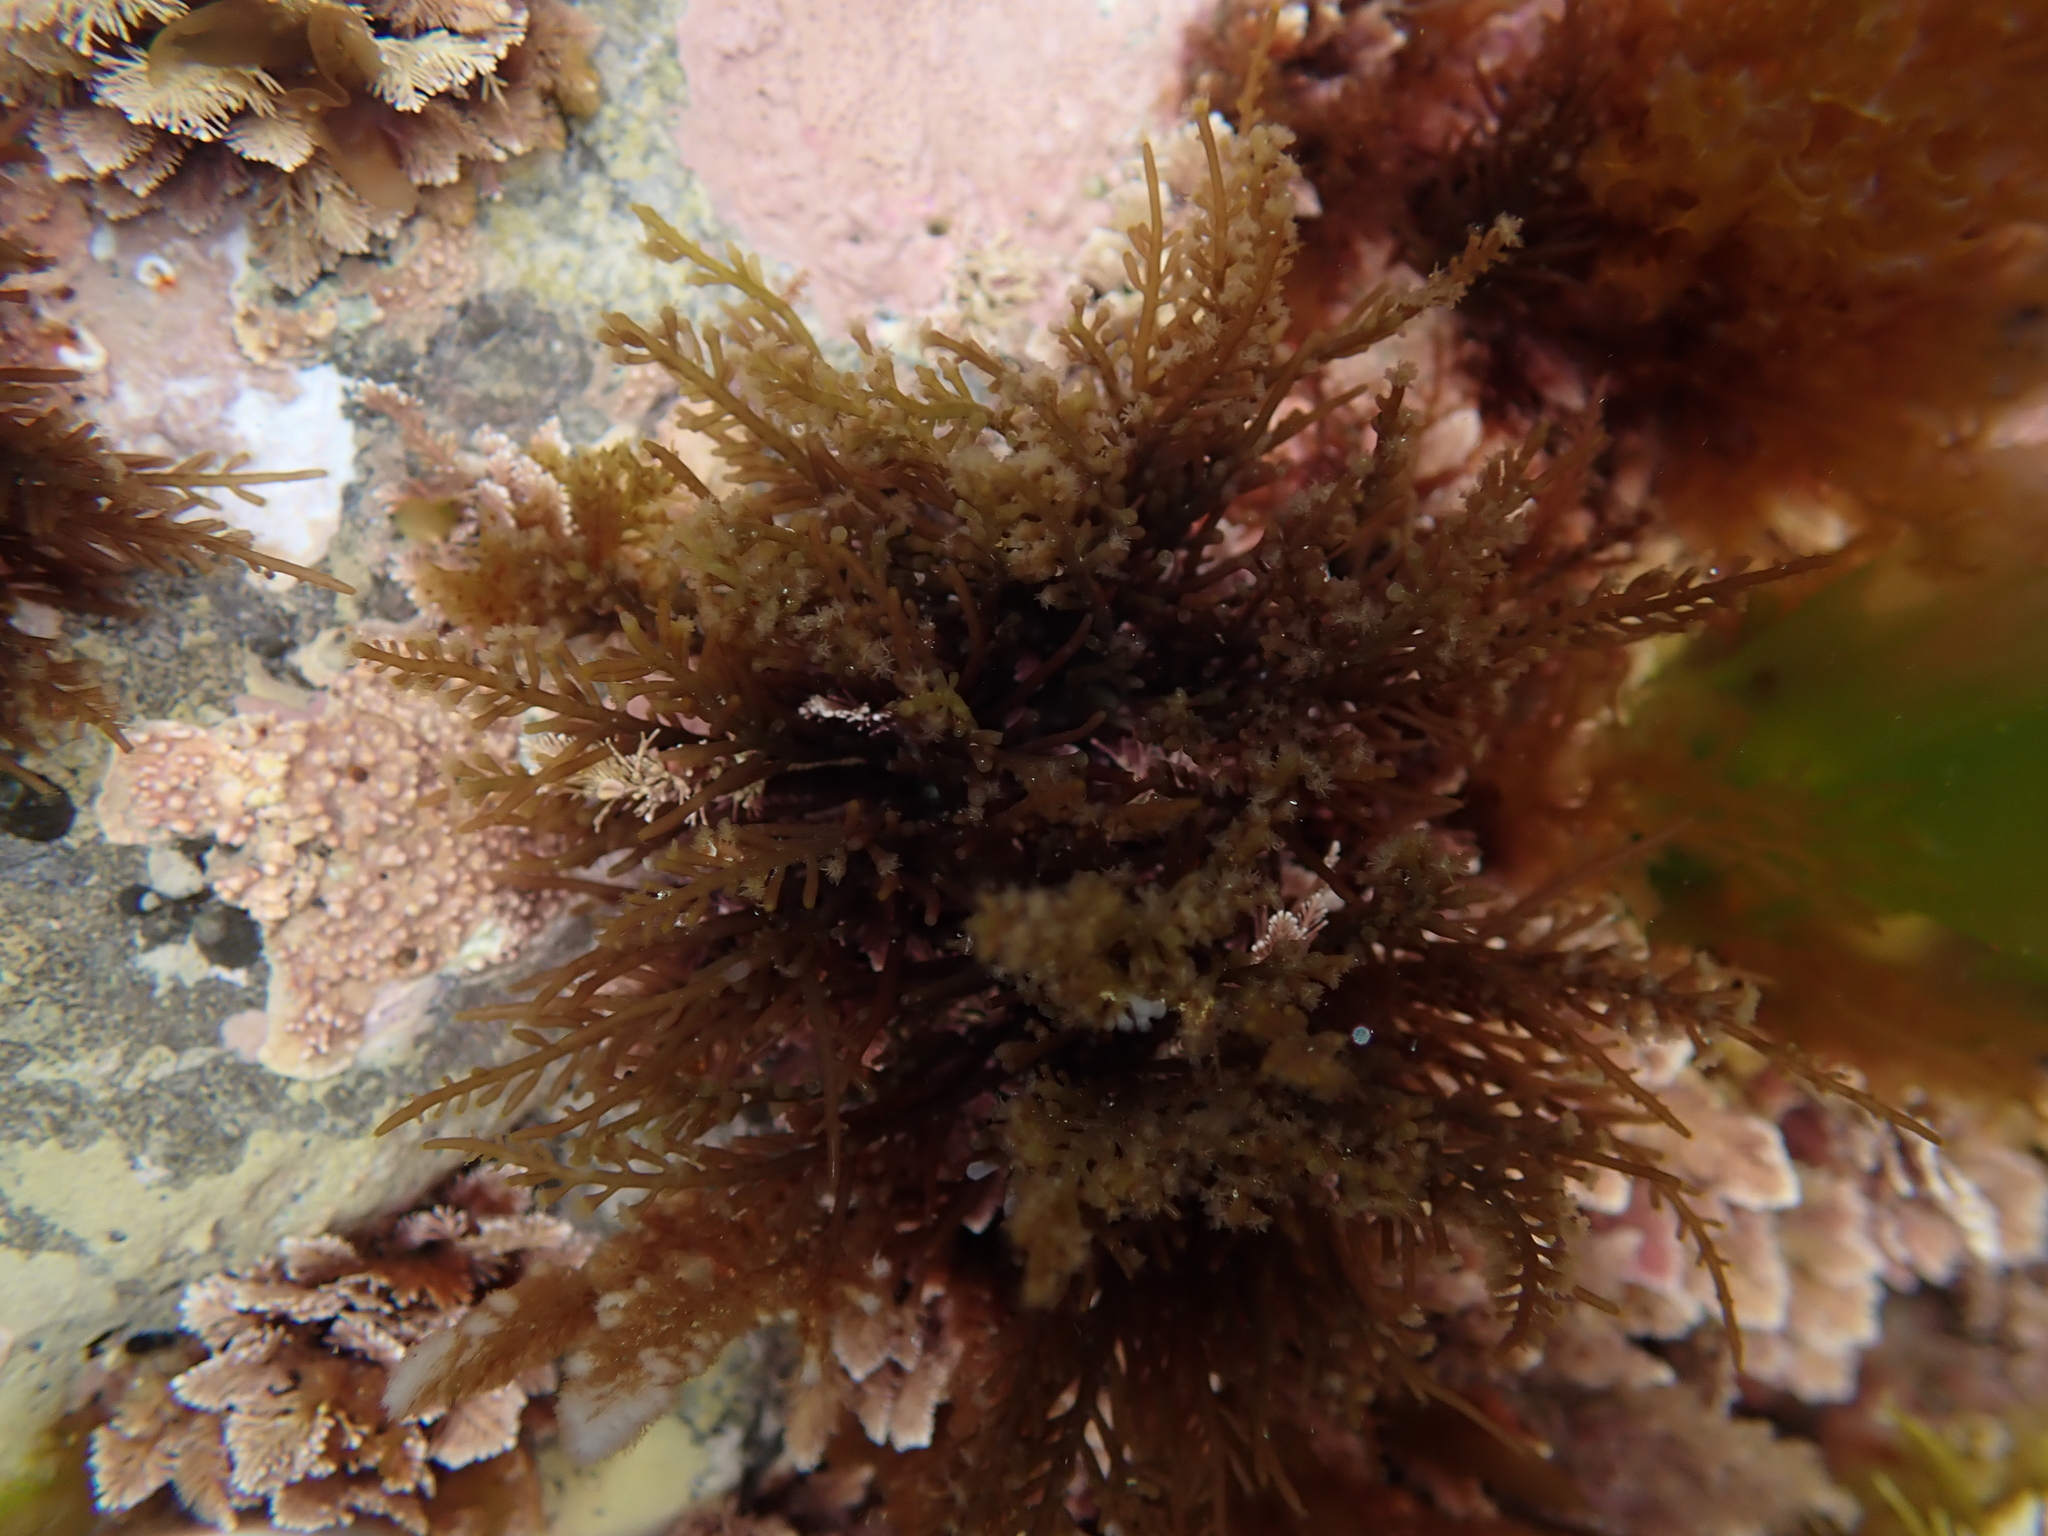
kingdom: Plantae
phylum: Rhodophyta
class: Florideophyceae
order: Ceramiales
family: Rhodomelaceae
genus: Laurencia
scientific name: Laurencia thyrsifera
